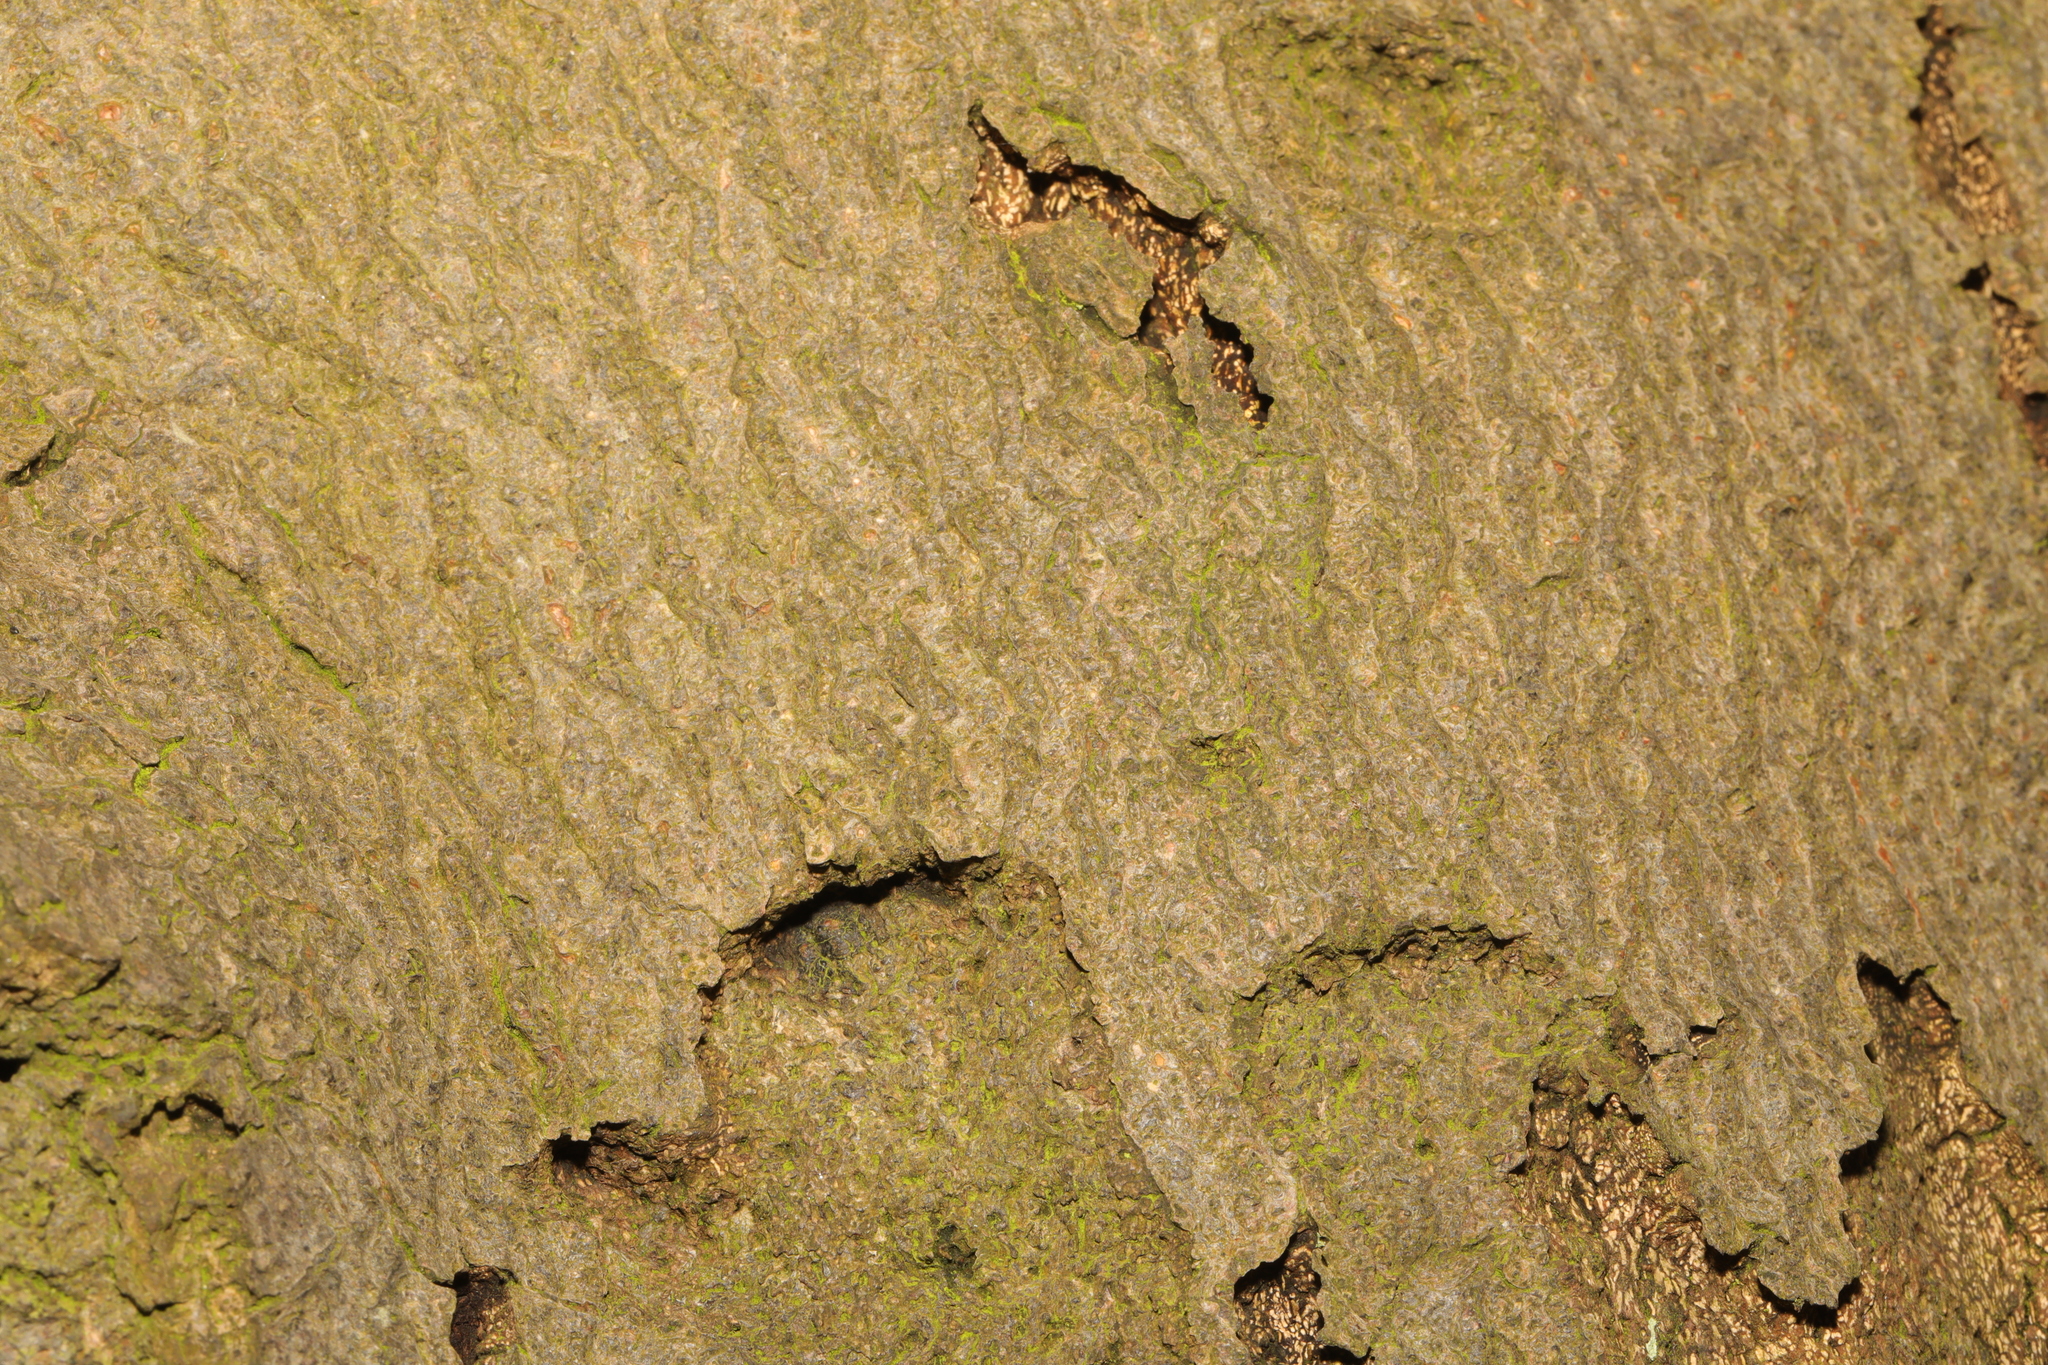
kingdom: Plantae
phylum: Tracheophyta
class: Magnoliopsida
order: Fagales
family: Fagaceae
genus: Fagus
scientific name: Fagus sylvatica
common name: Beech
